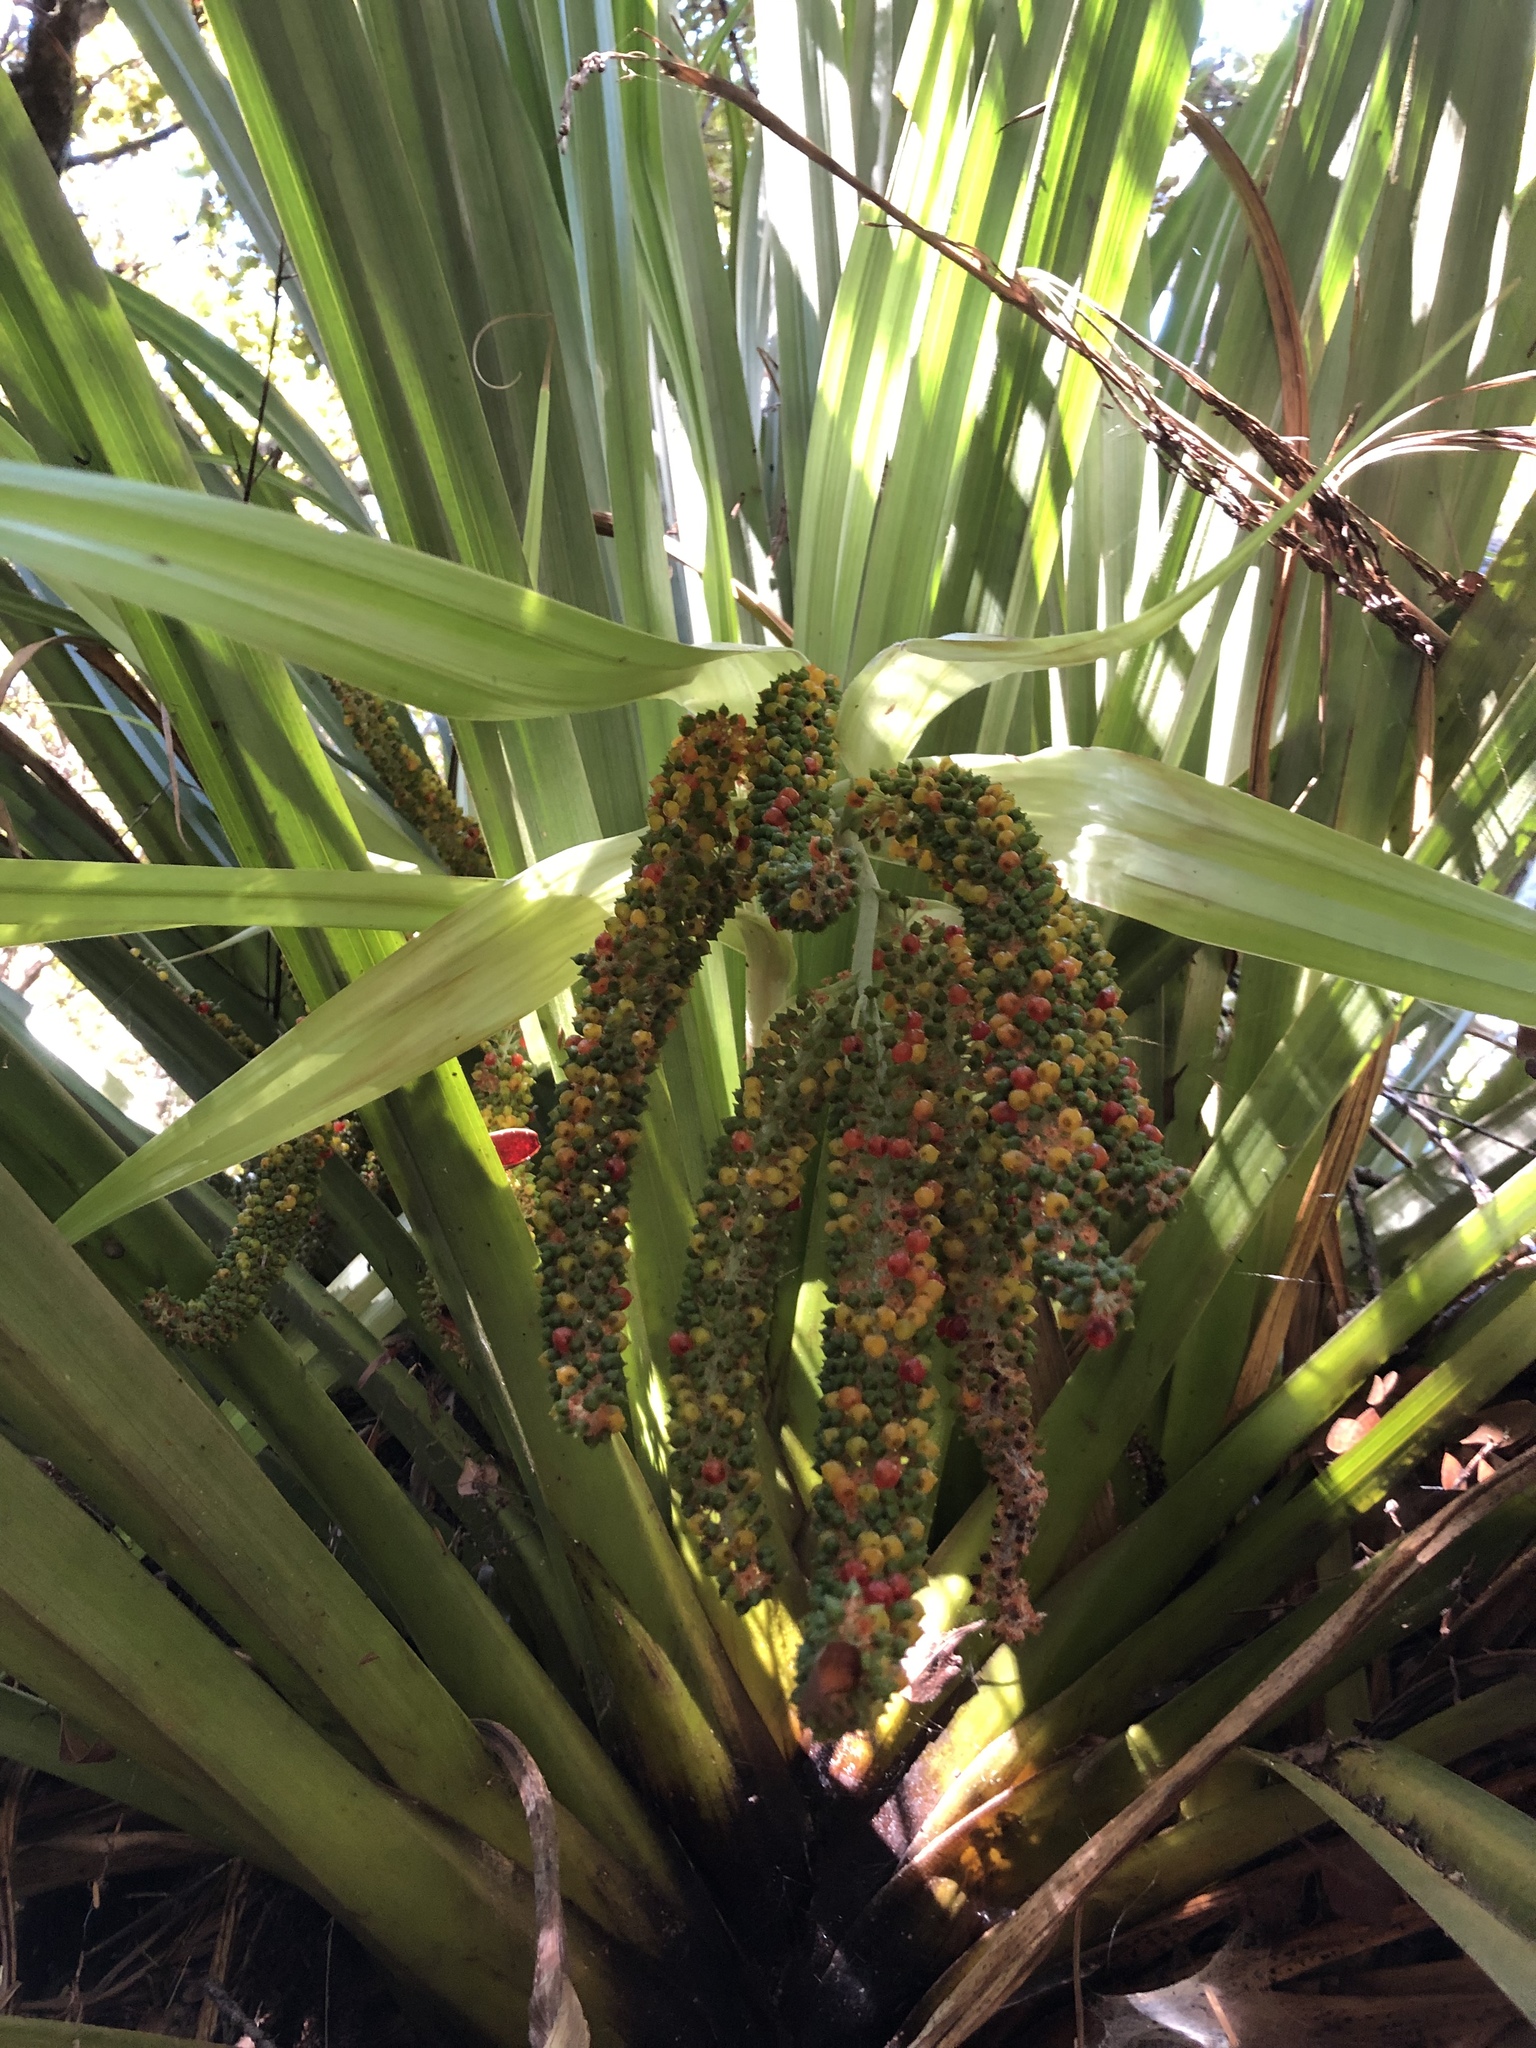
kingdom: Plantae
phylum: Tracheophyta
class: Liliopsida
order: Asparagales
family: Asteliaceae
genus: Astelia
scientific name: Astelia hastata
